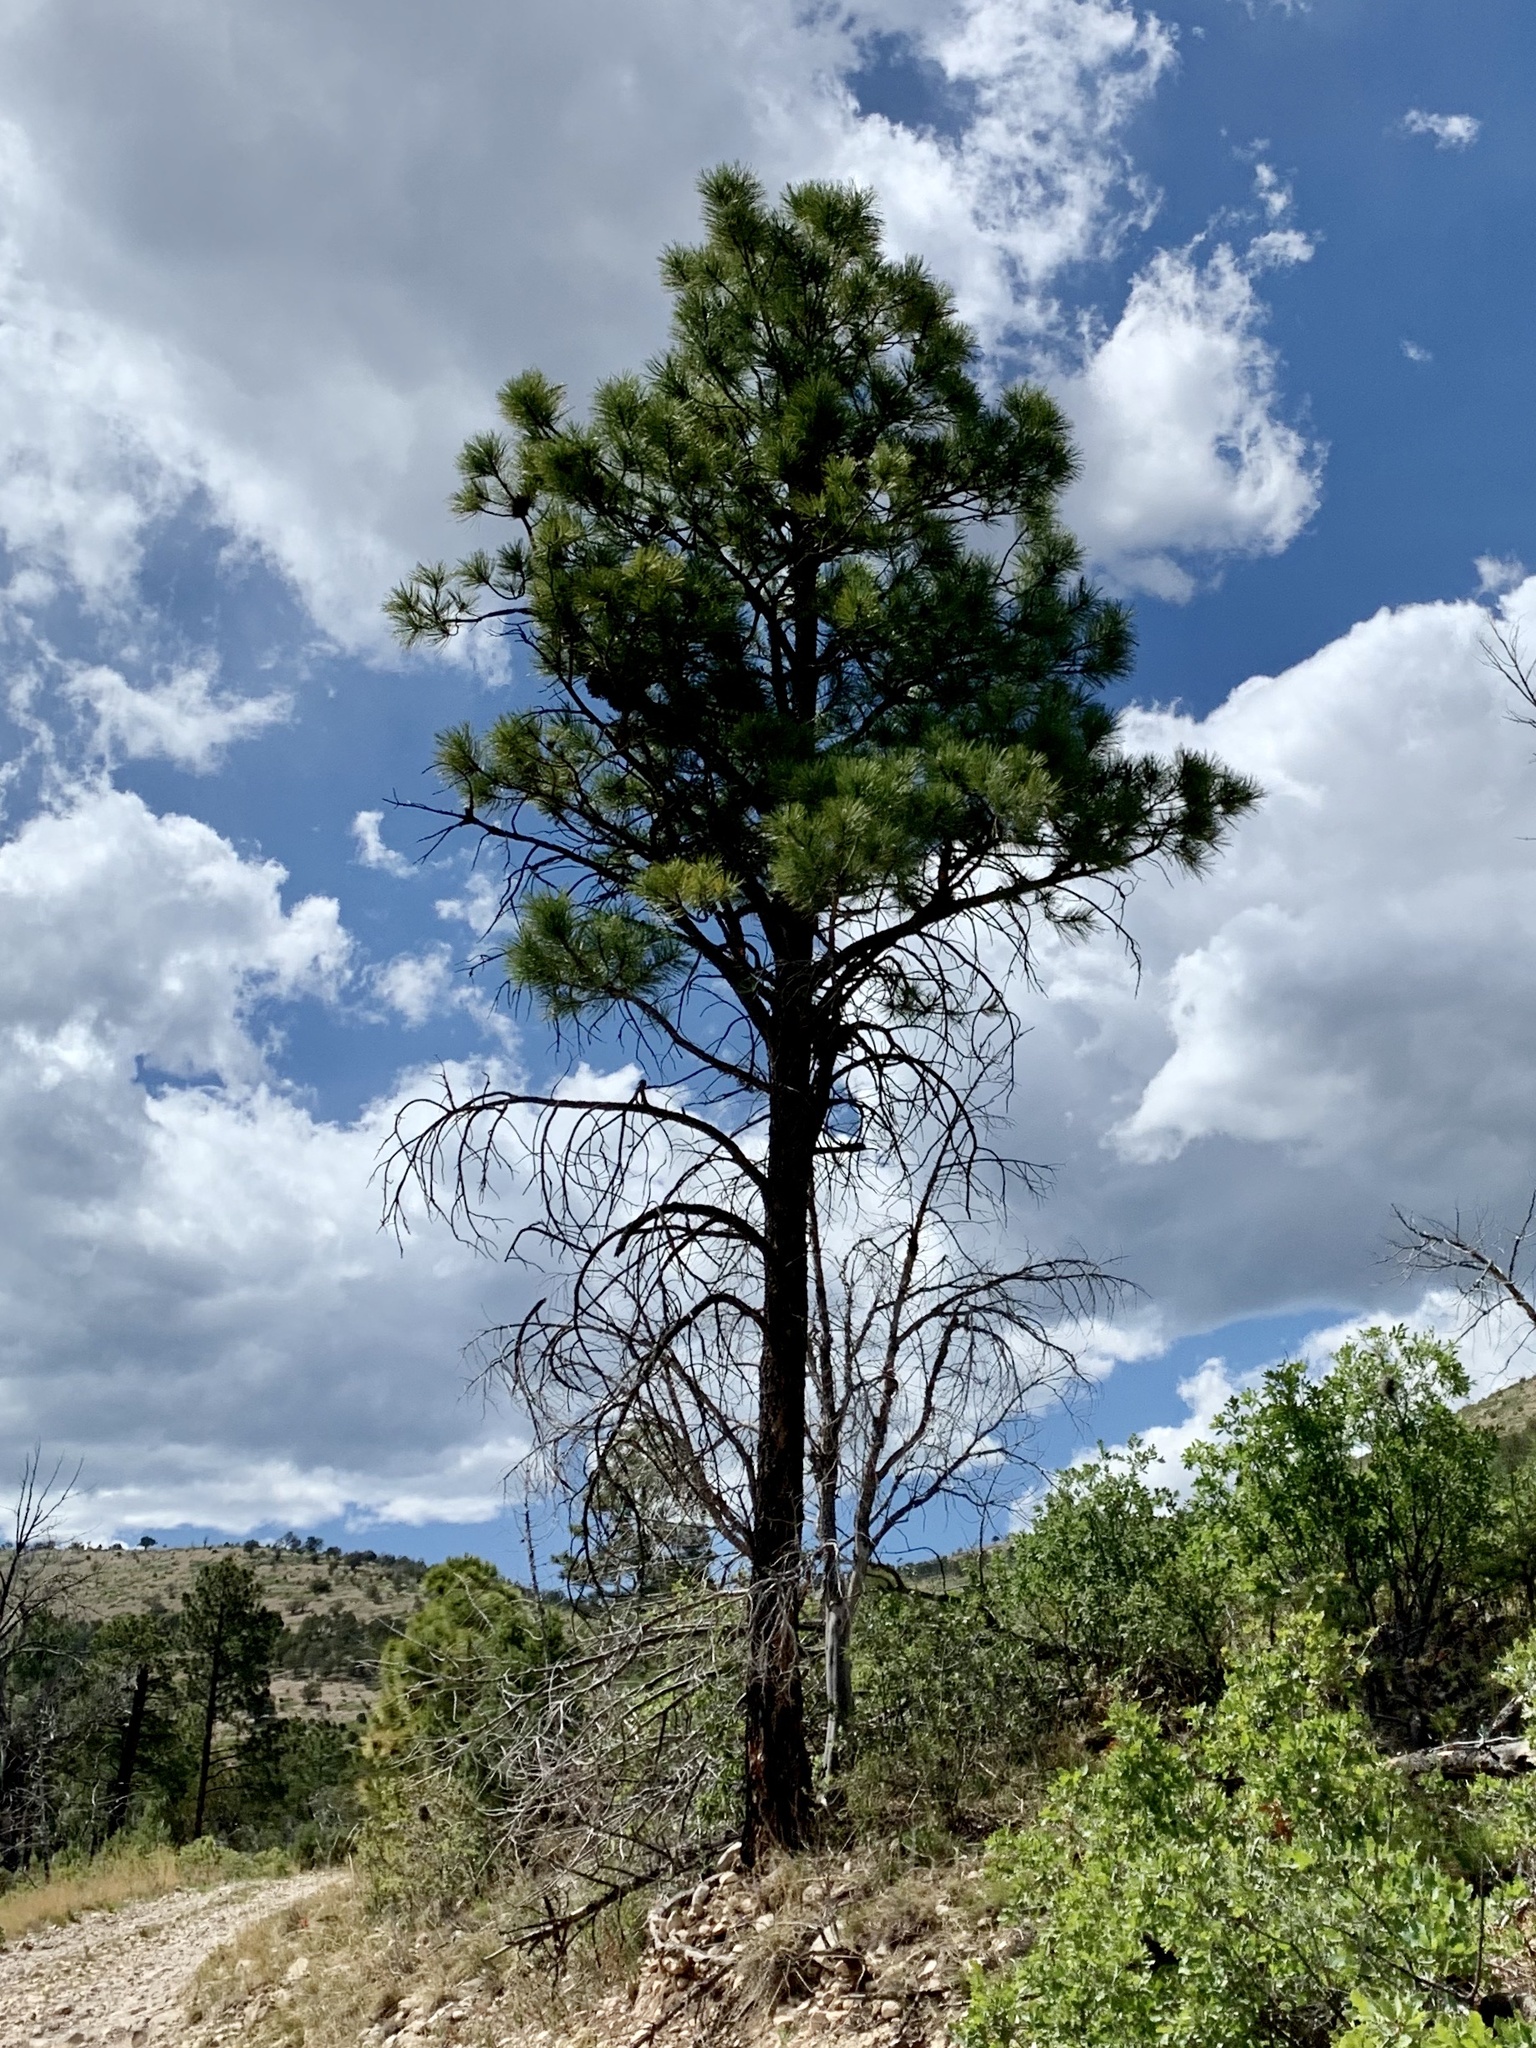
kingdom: Plantae
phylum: Tracheophyta
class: Pinopsida
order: Pinales
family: Pinaceae
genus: Pinus
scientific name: Pinus ponderosa
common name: Western yellow-pine
